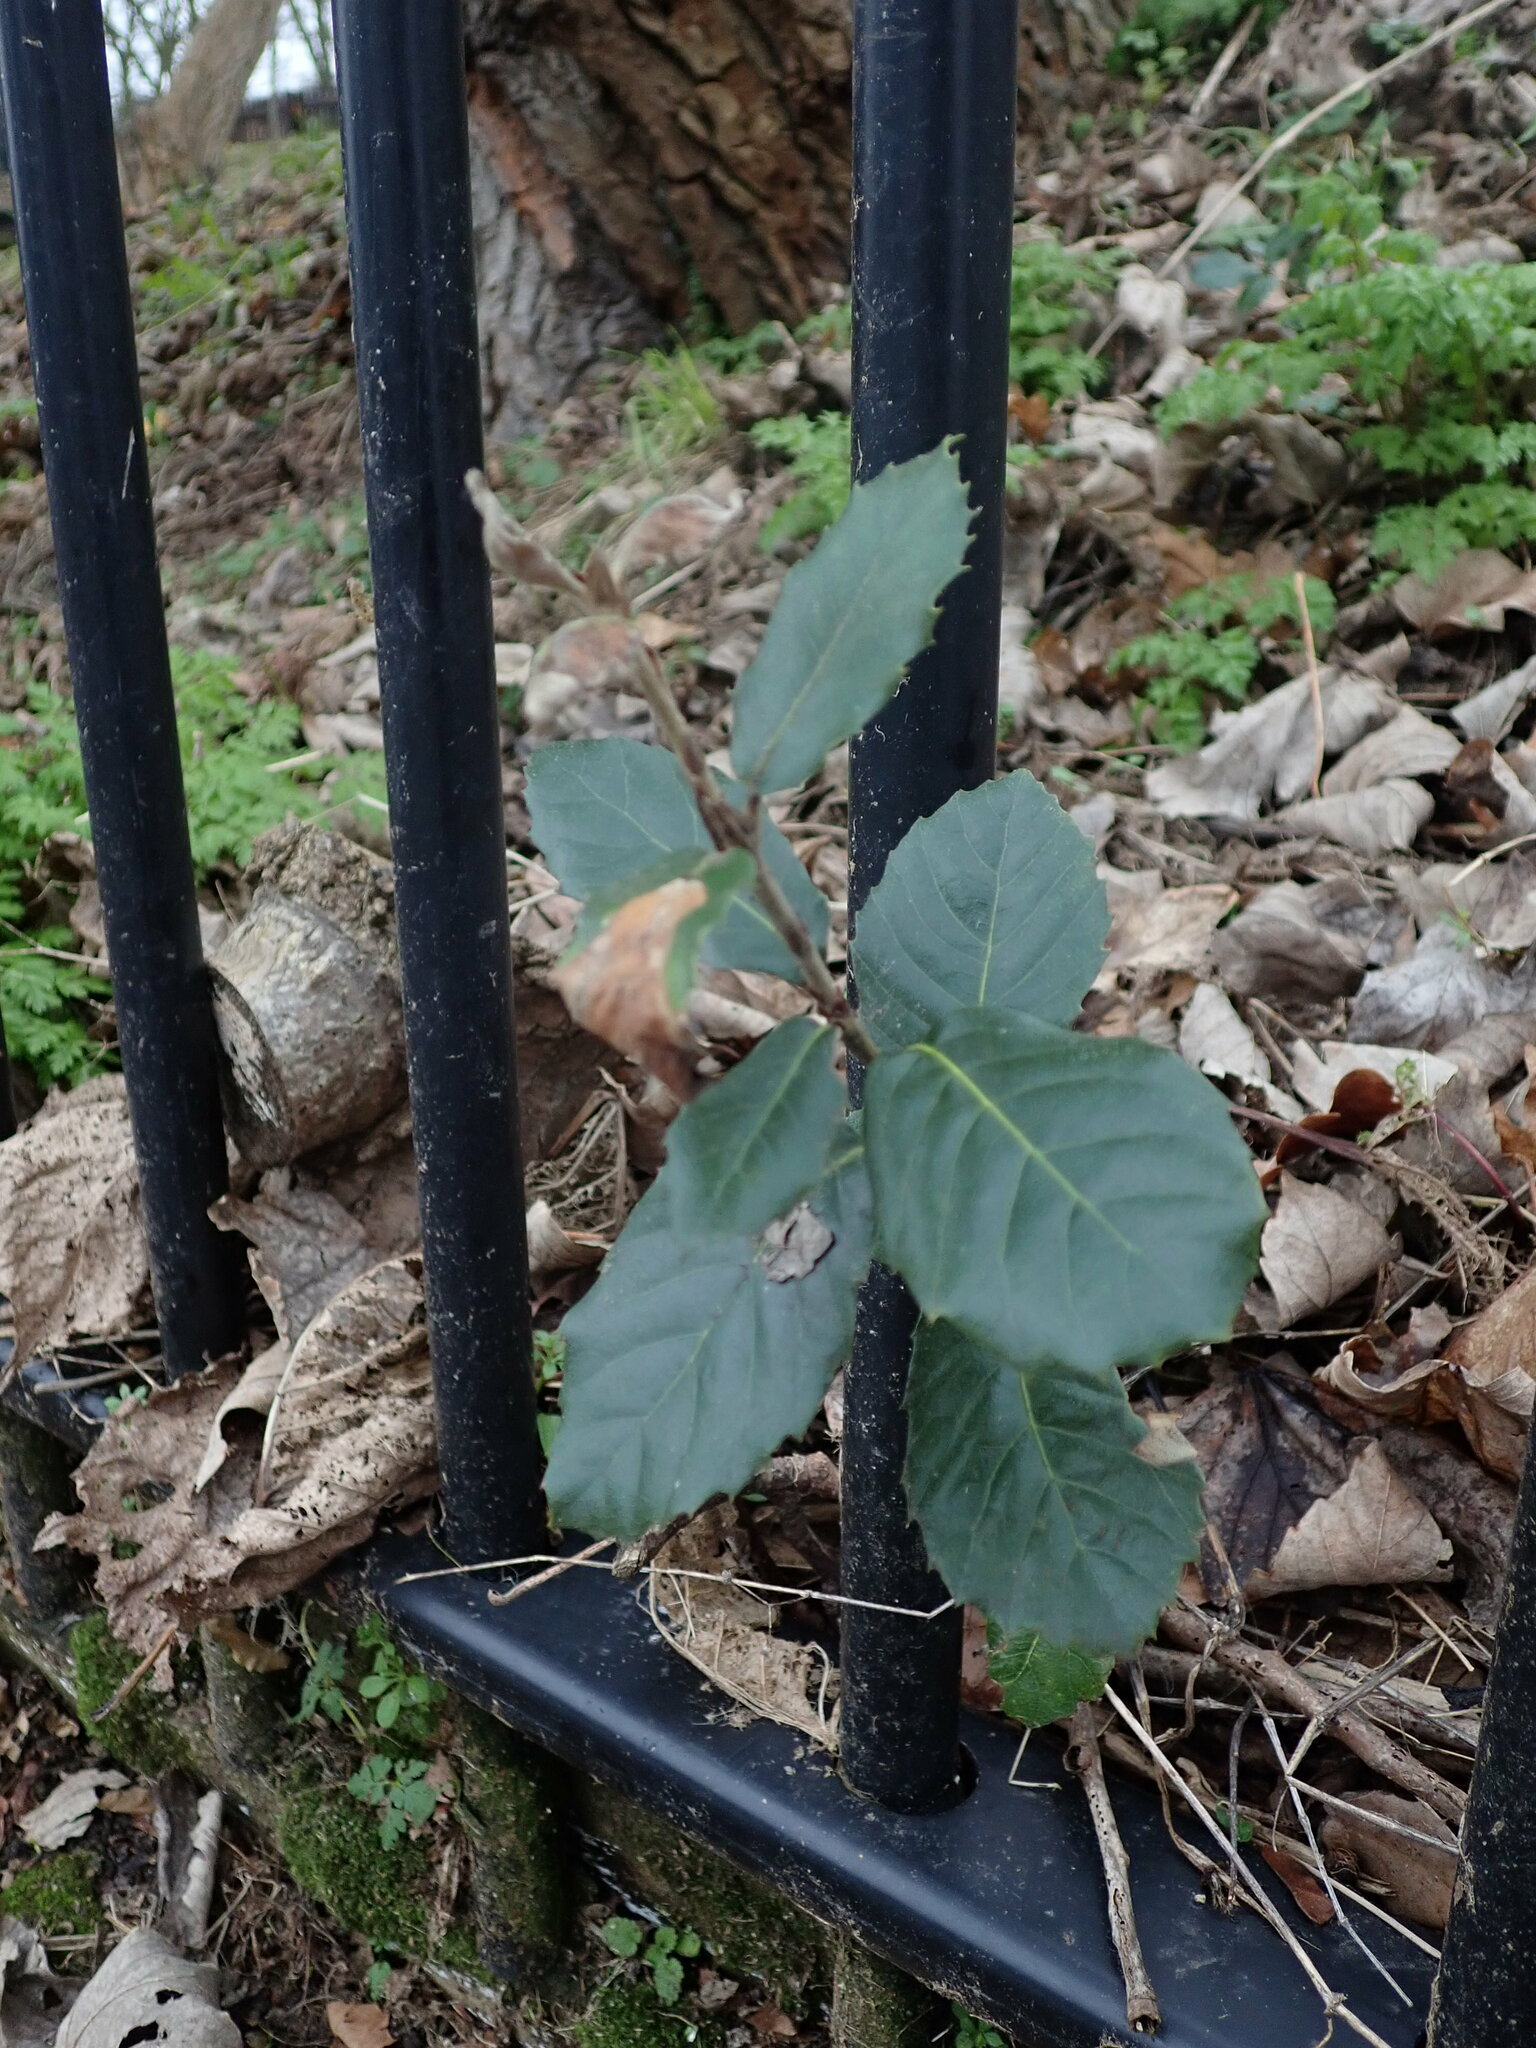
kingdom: Plantae
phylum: Tracheophyta
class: Magnoliopsida
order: Fagales
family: Fagaceae
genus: Quercus
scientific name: Quercus ilex
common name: Evergreen oak
